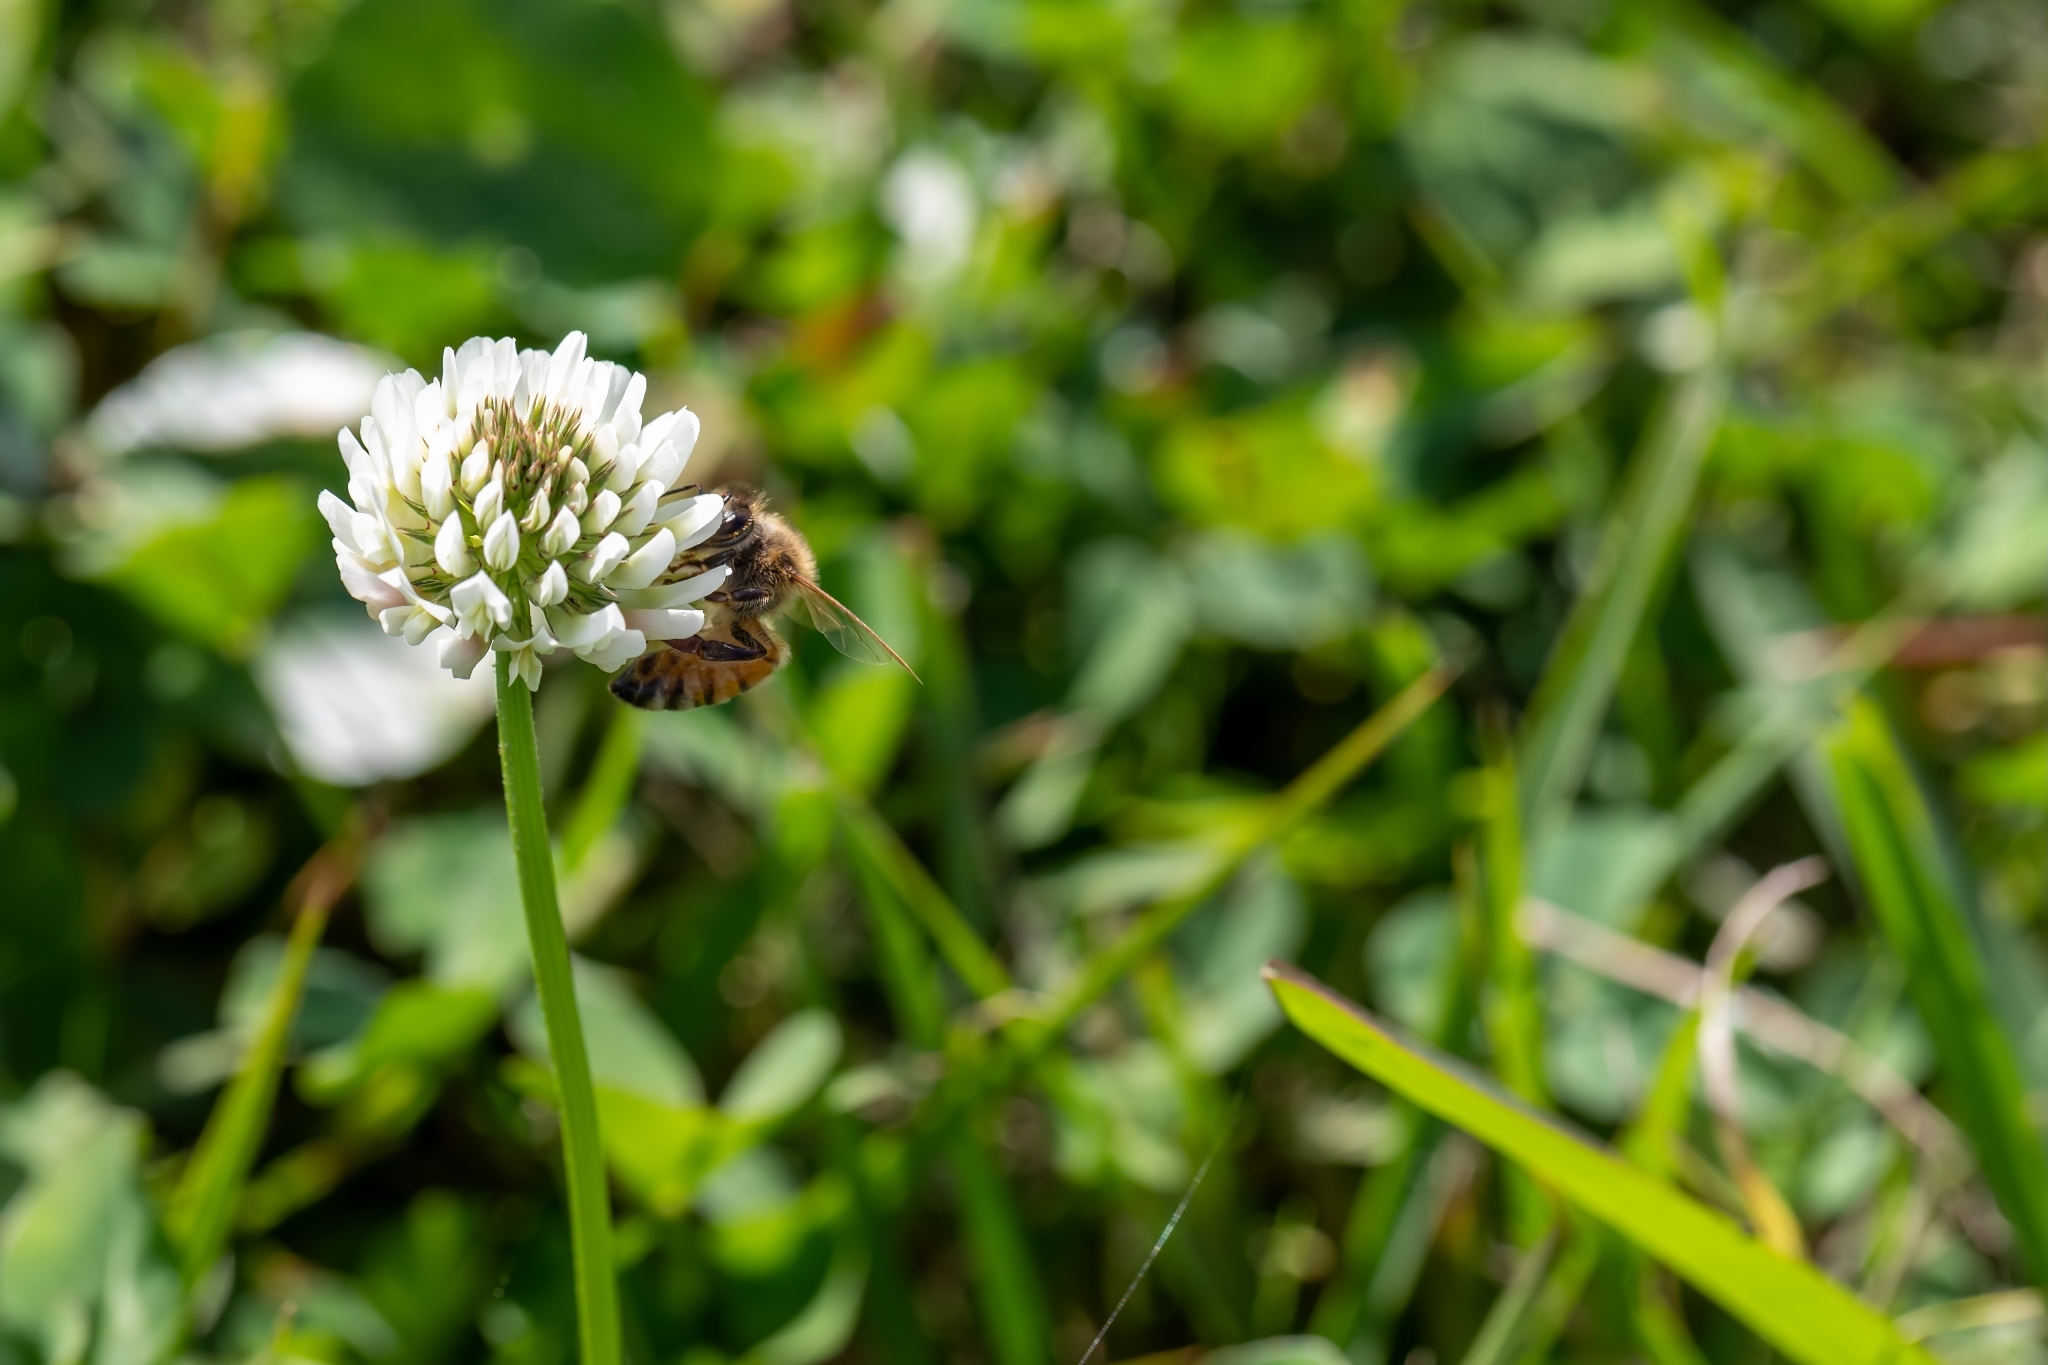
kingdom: Animalia
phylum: Arthropoda
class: Insecta
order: Hymenoptera
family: Apidae
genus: Apis
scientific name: Apis mellifera
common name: Honey bee
